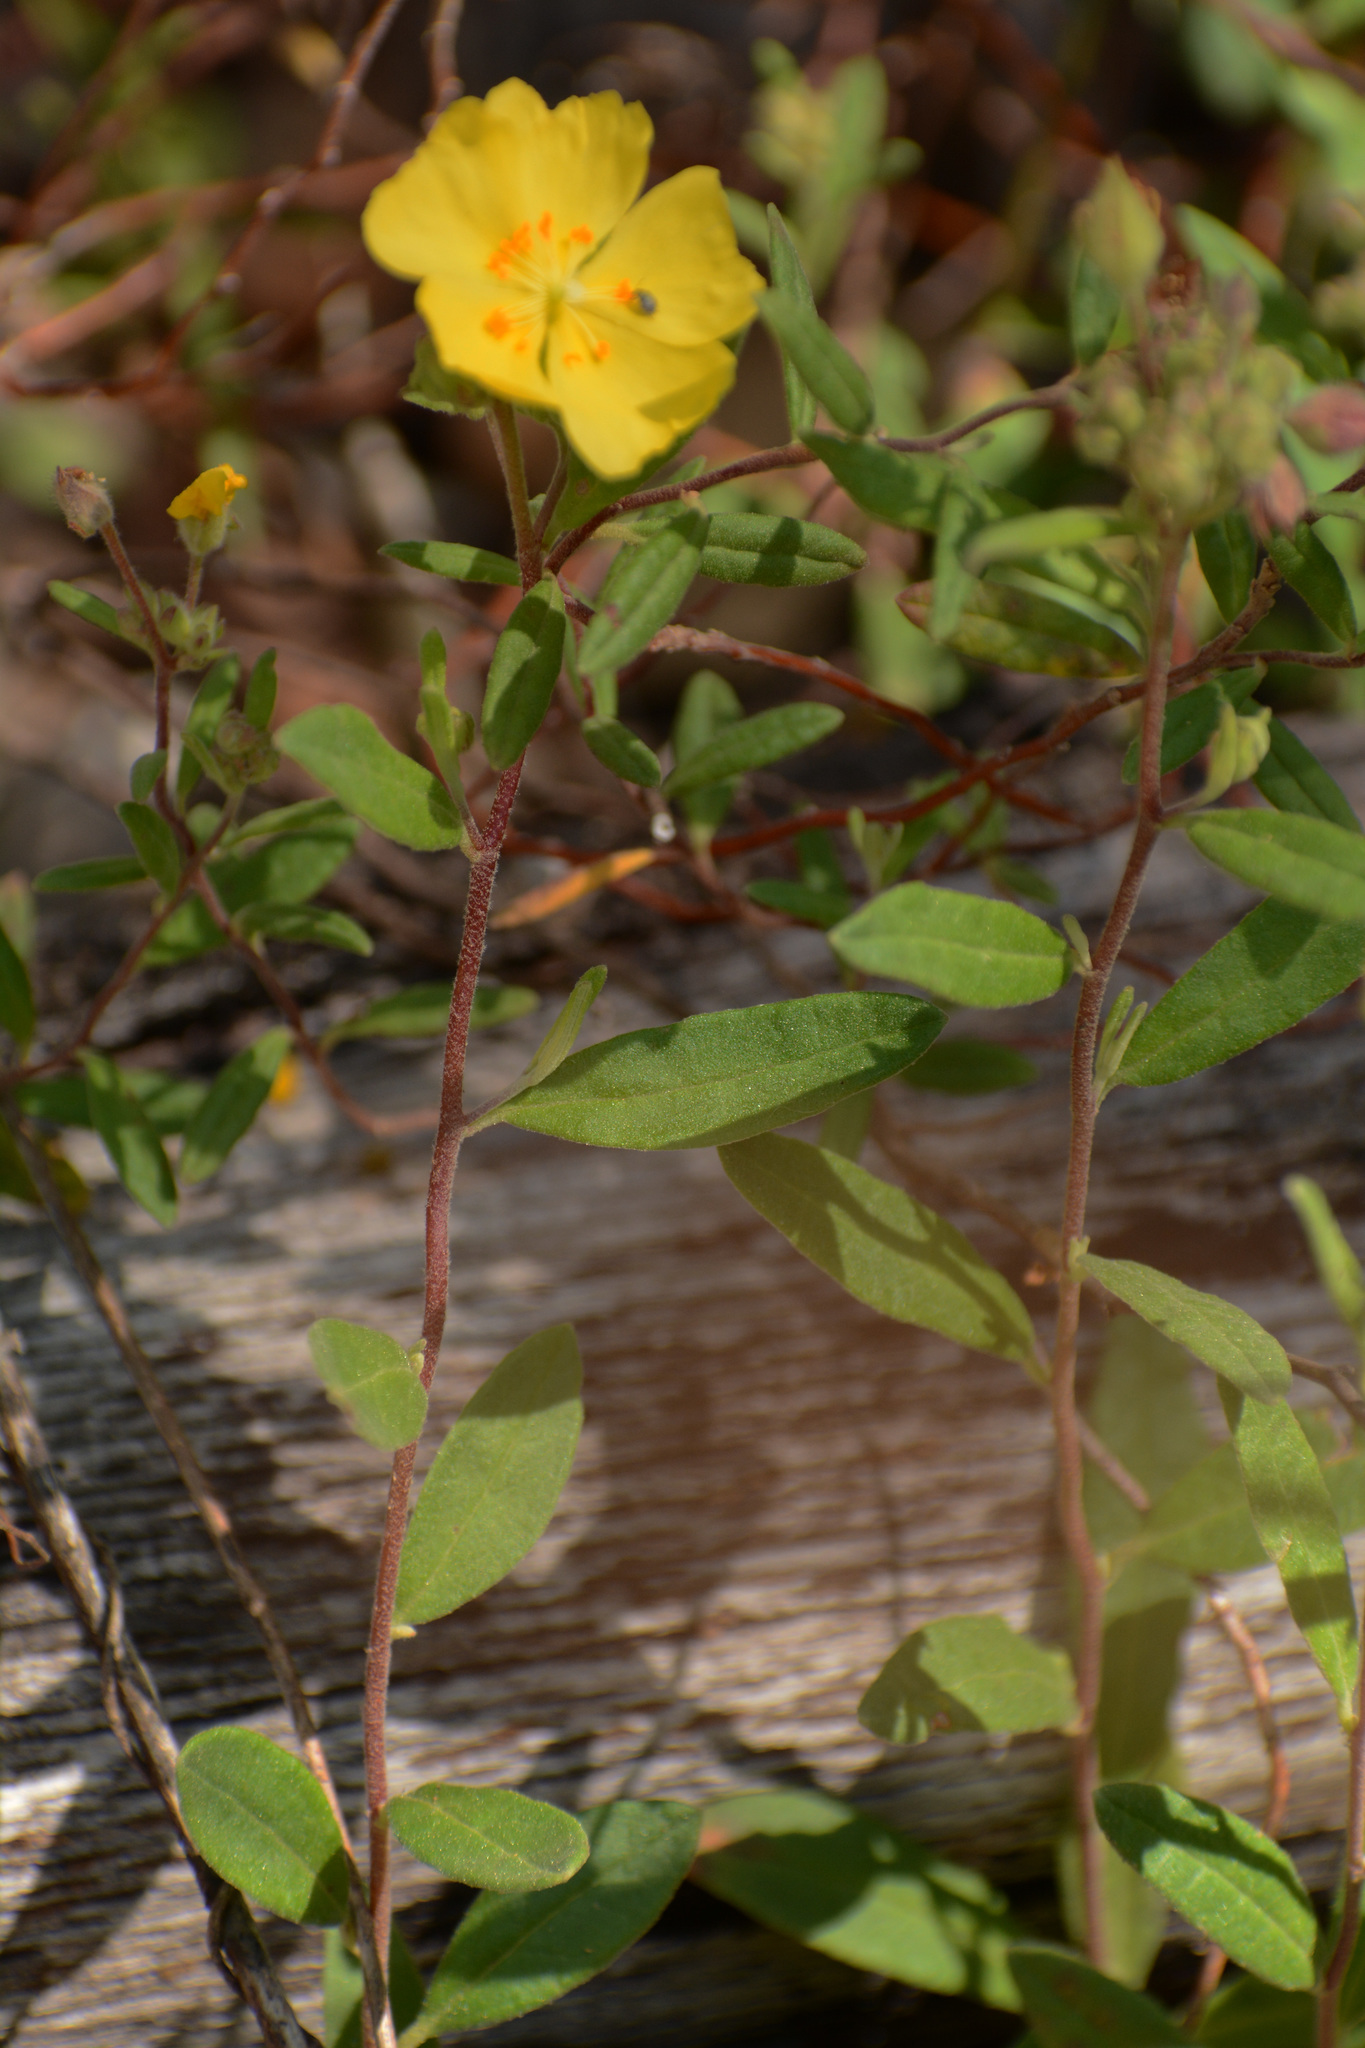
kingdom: Plantae
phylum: Tracheophyta
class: Magnoliopsida
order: Malvales
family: Cistaceae
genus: Crocanthemum
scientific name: Crocanthemum corymbosum
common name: Pinebarren sun-rose
